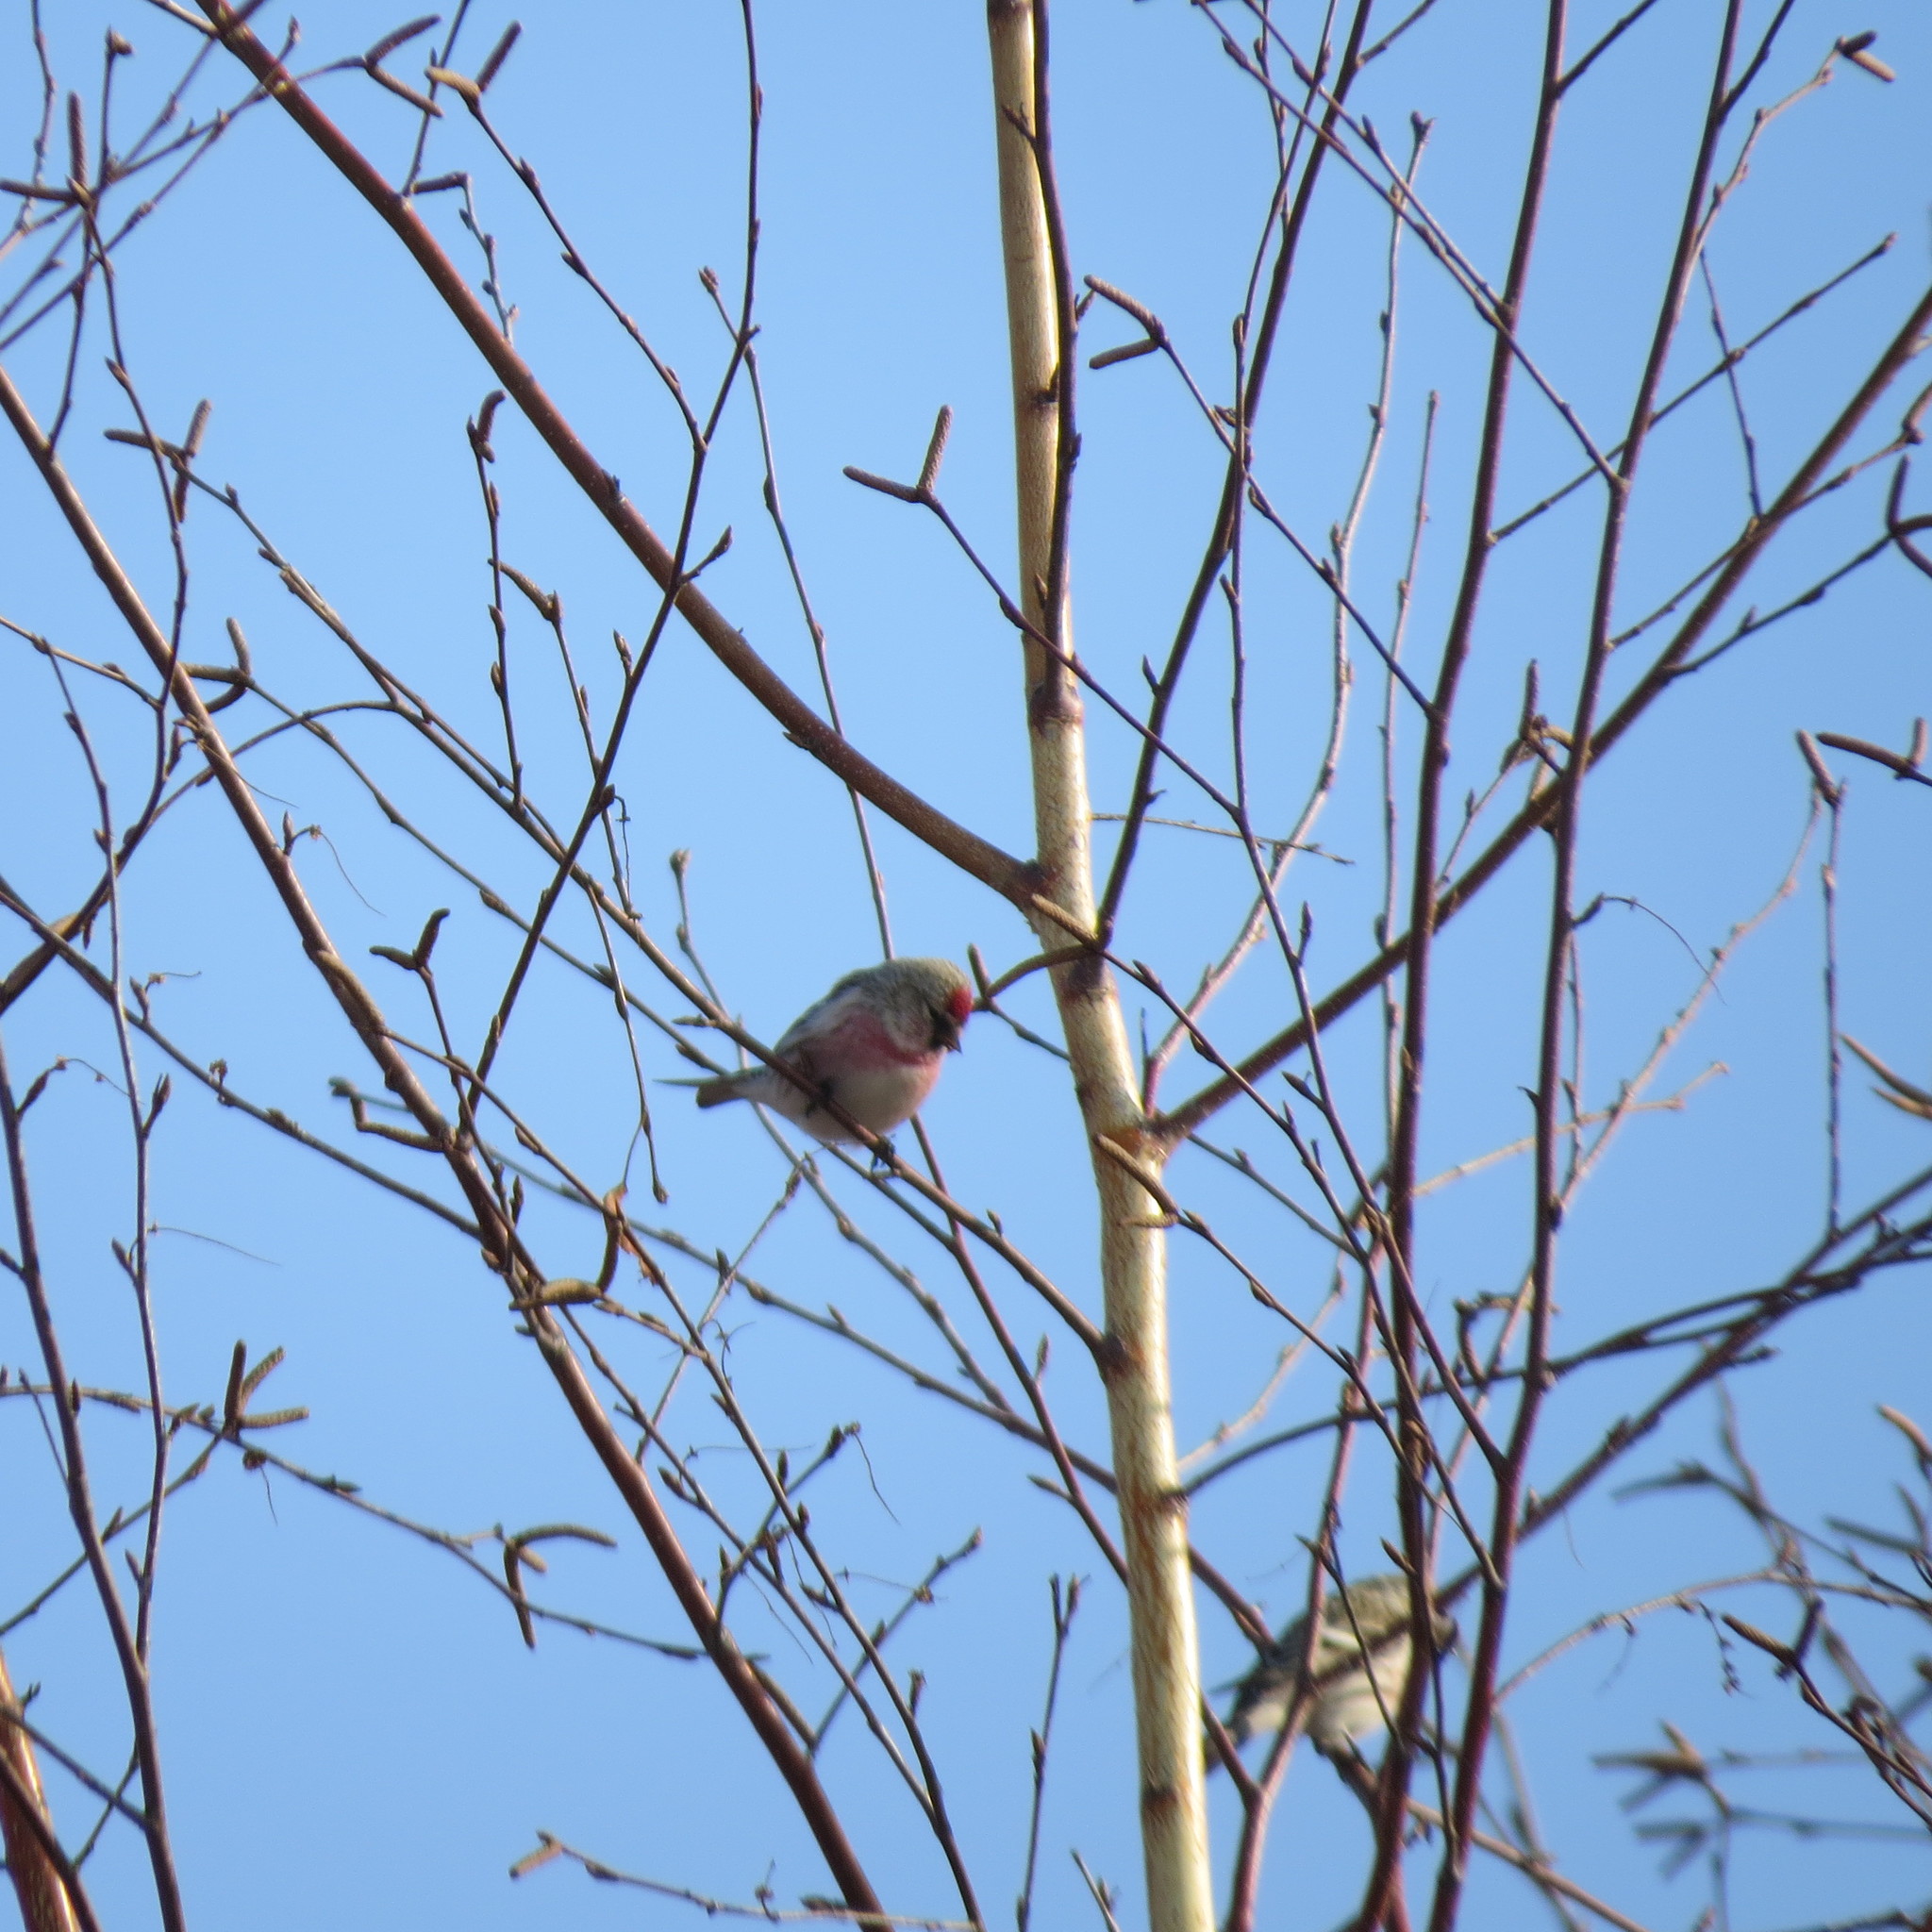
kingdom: Animalia
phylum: Chordata
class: Aves
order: Passeriformes
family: Fringillidae
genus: Acanthis
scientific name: Acanthis flammea
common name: Common redpoll
